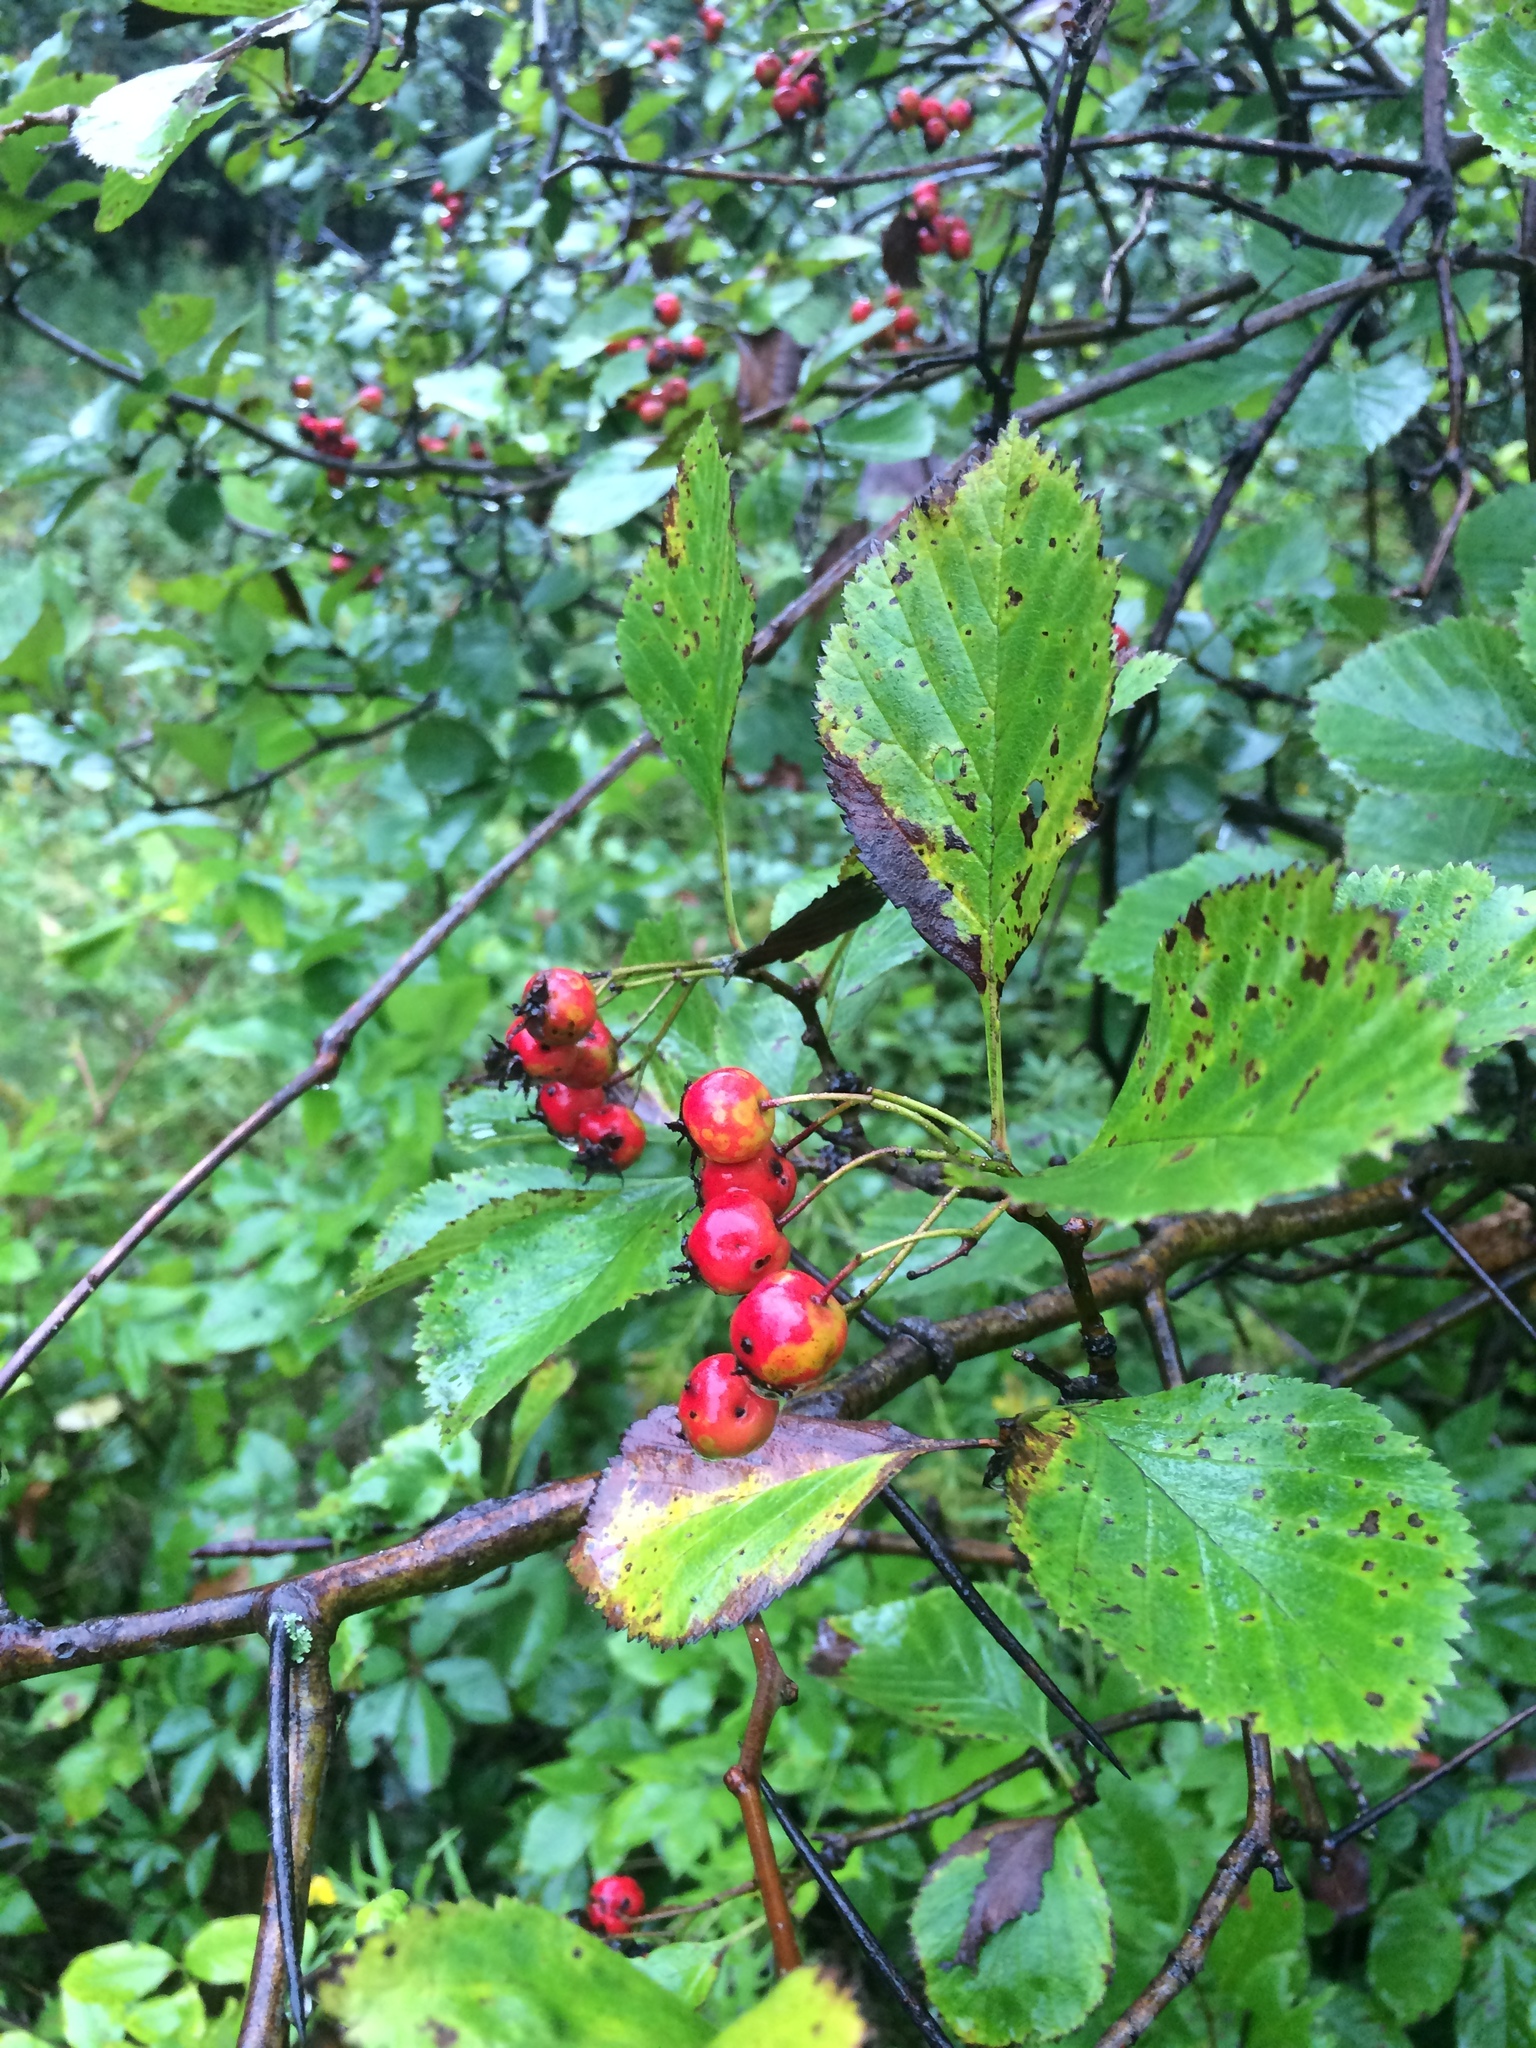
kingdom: Plantae
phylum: Tracheophyta
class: Magnoliopsida
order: Rosales
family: Rosaceae
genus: Crataegus
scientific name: Crataegus macracantha
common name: Large-thorn hawthorn
